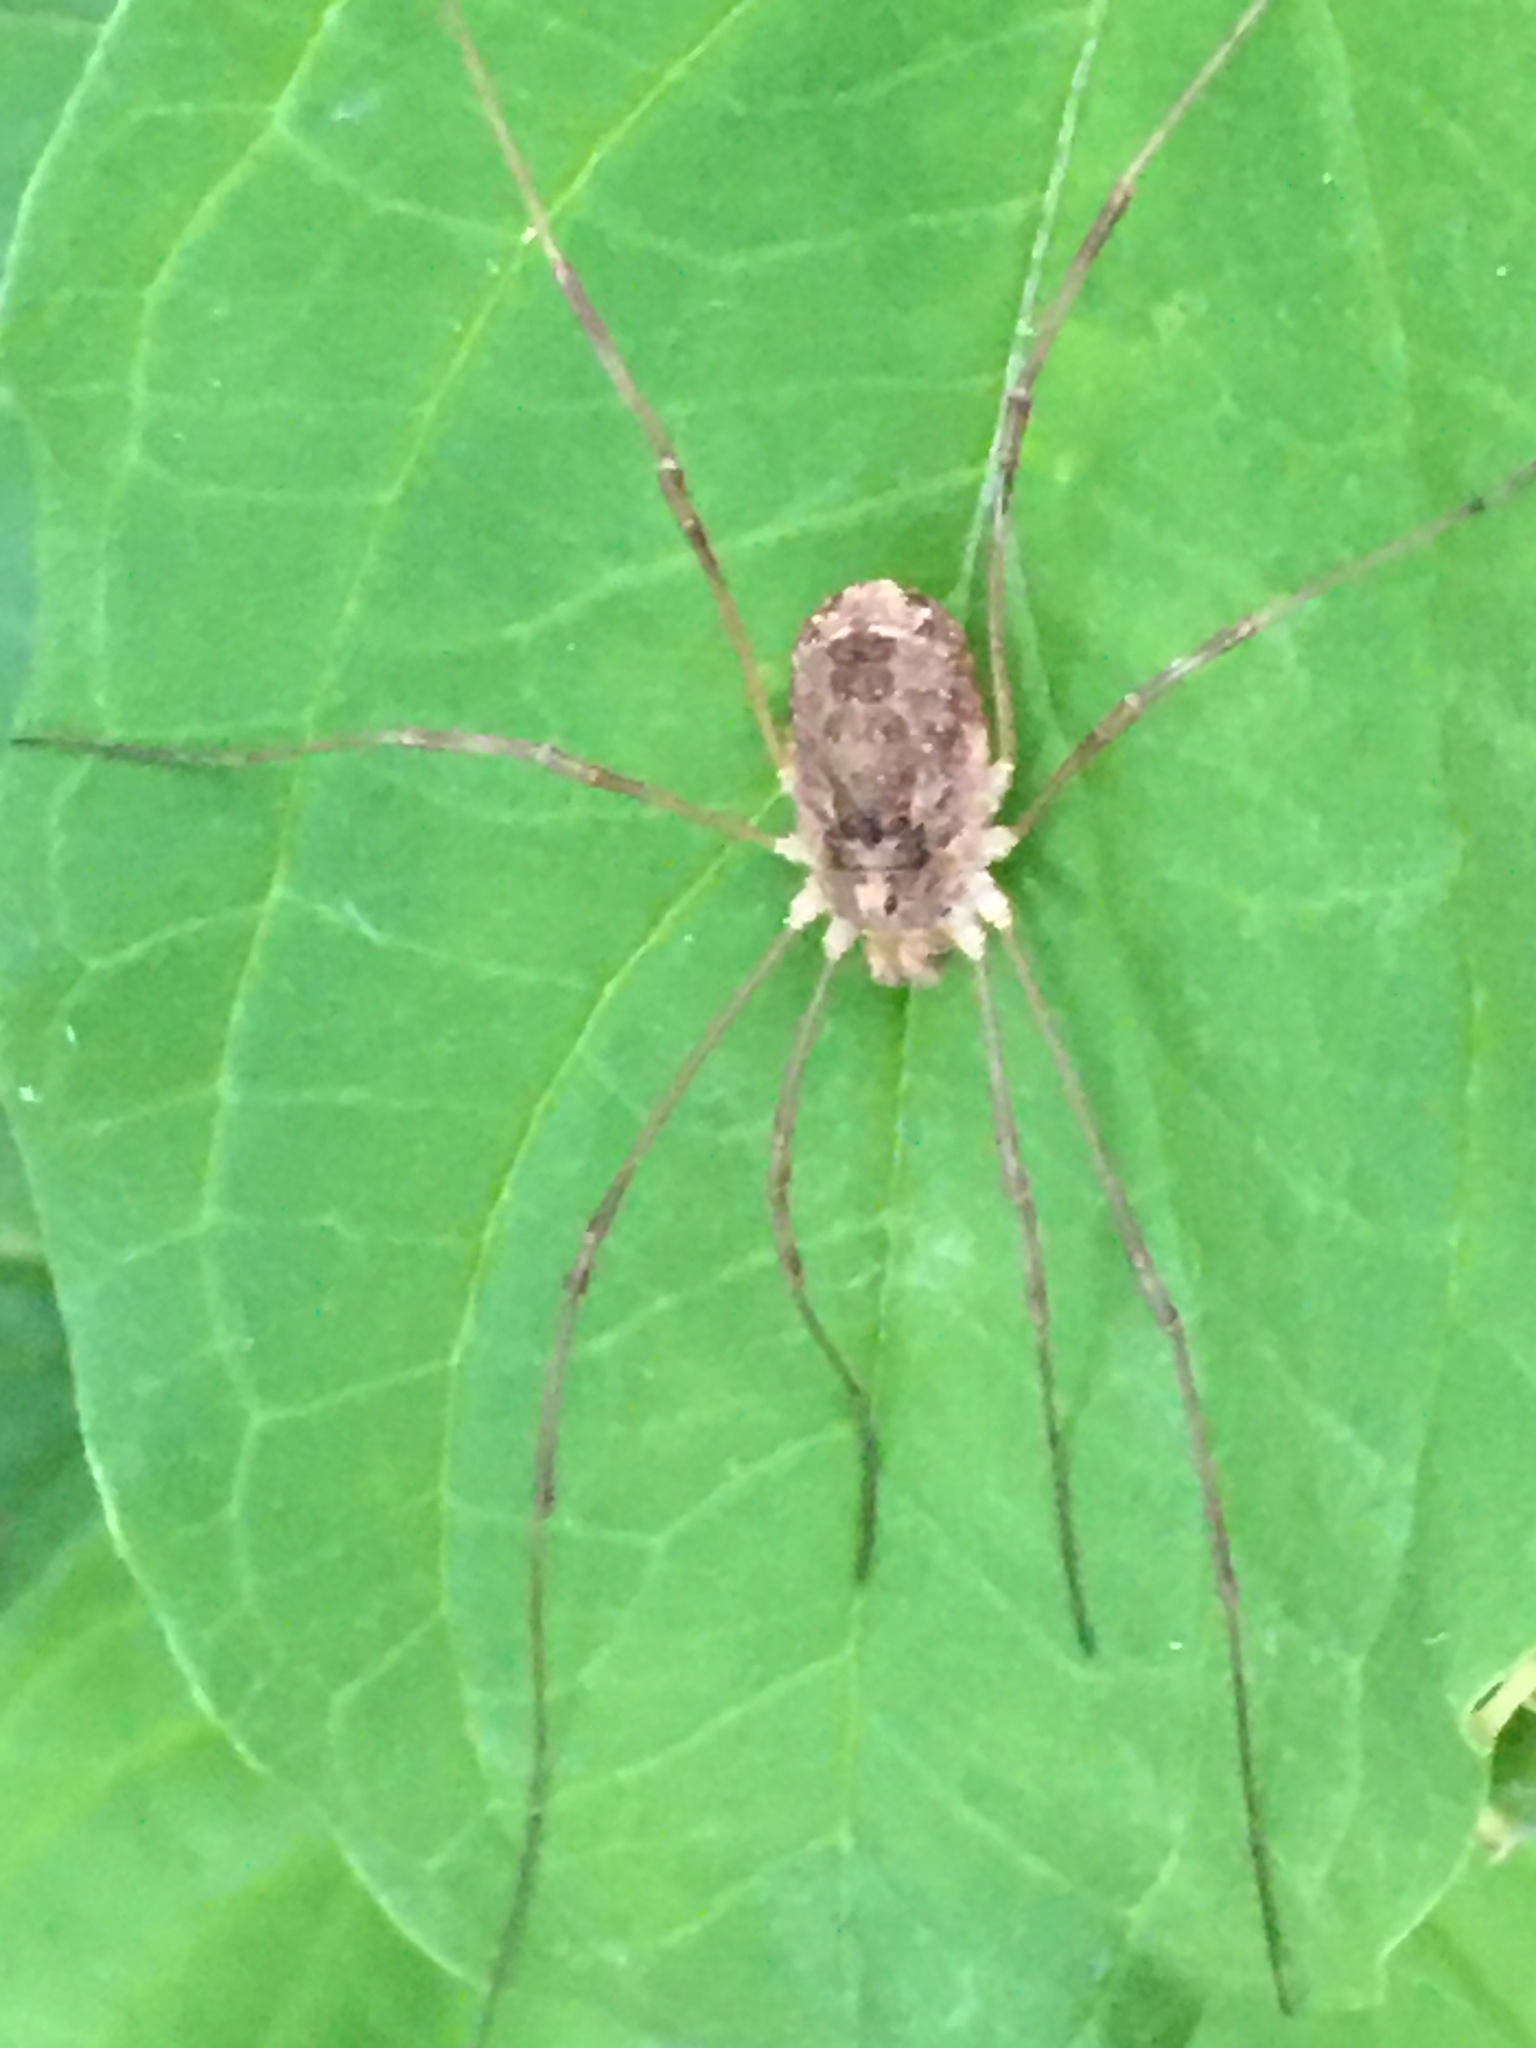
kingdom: Animalia
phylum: Arthropoda
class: Arachnida
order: Opiliones
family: Phalangiidae
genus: Rilaena
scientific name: Rilaena triangularis
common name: Spring harvestman
